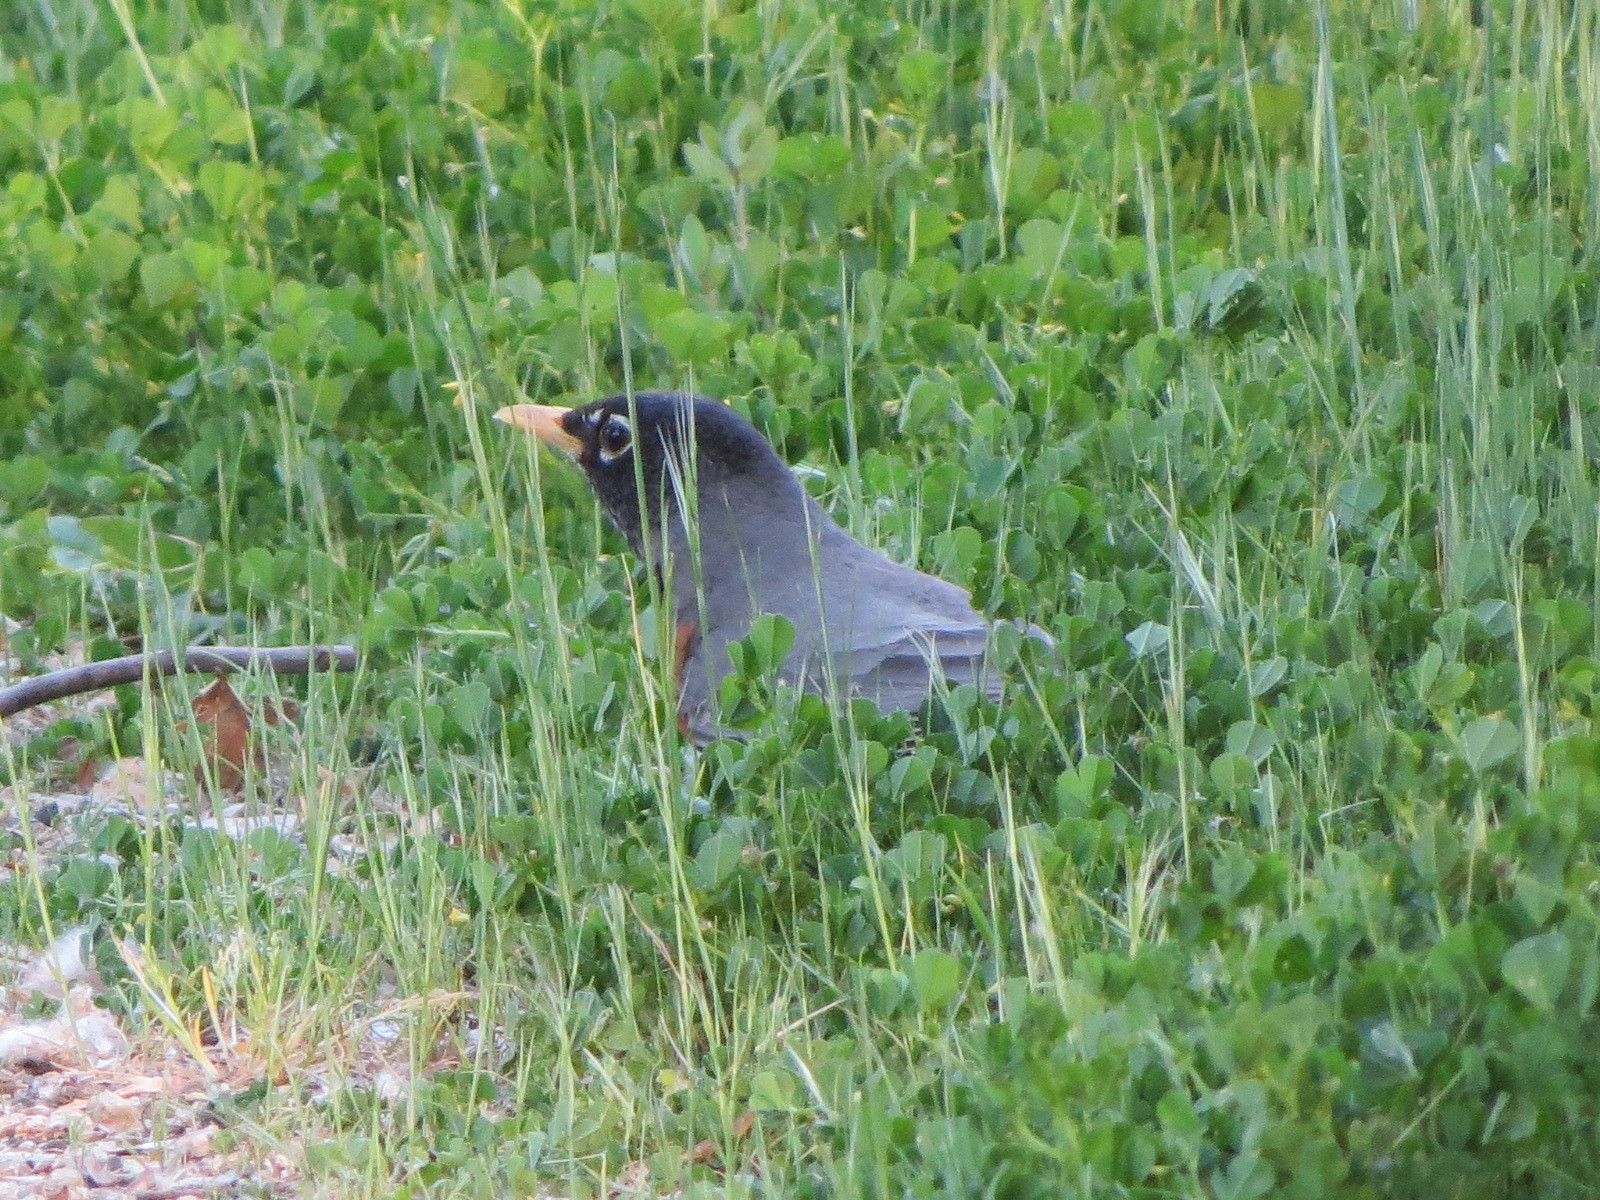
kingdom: Animalia
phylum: Chordata
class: Aves
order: Passeriformes
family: Turdidae
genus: Turdus
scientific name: Turdus migratorius
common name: American robin
